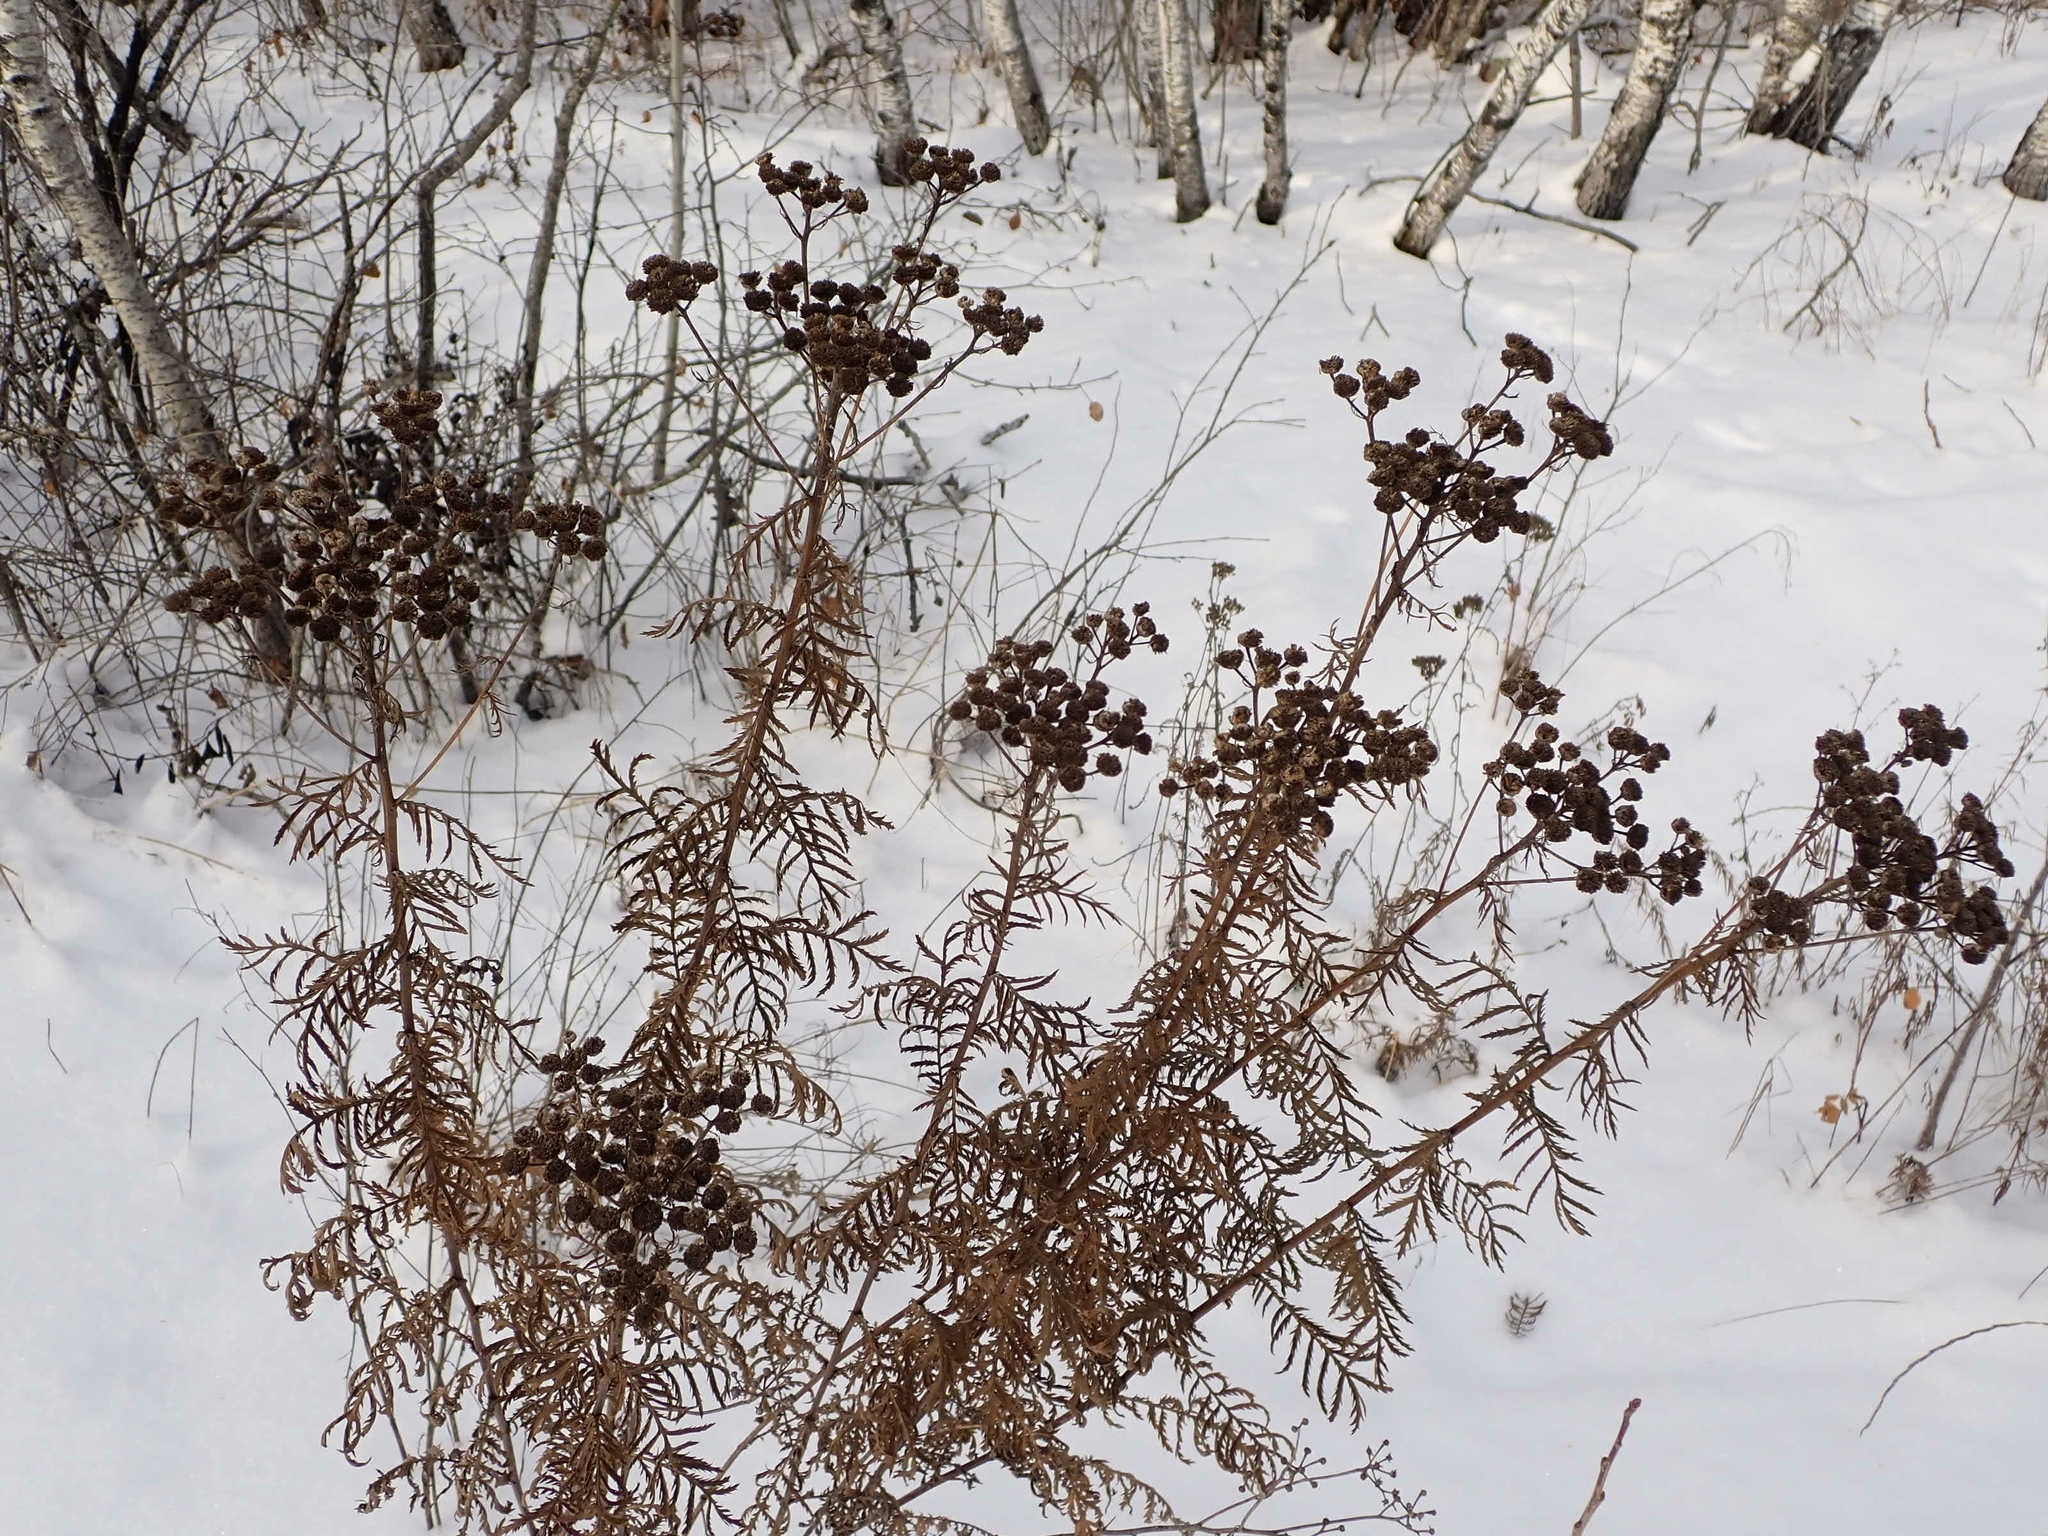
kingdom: Plantae
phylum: Tracheophyta
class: Magnoliopsida
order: Asterales
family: Asteraceae
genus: Tanacetum
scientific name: Tanacetum vulgare
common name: Common tansy
